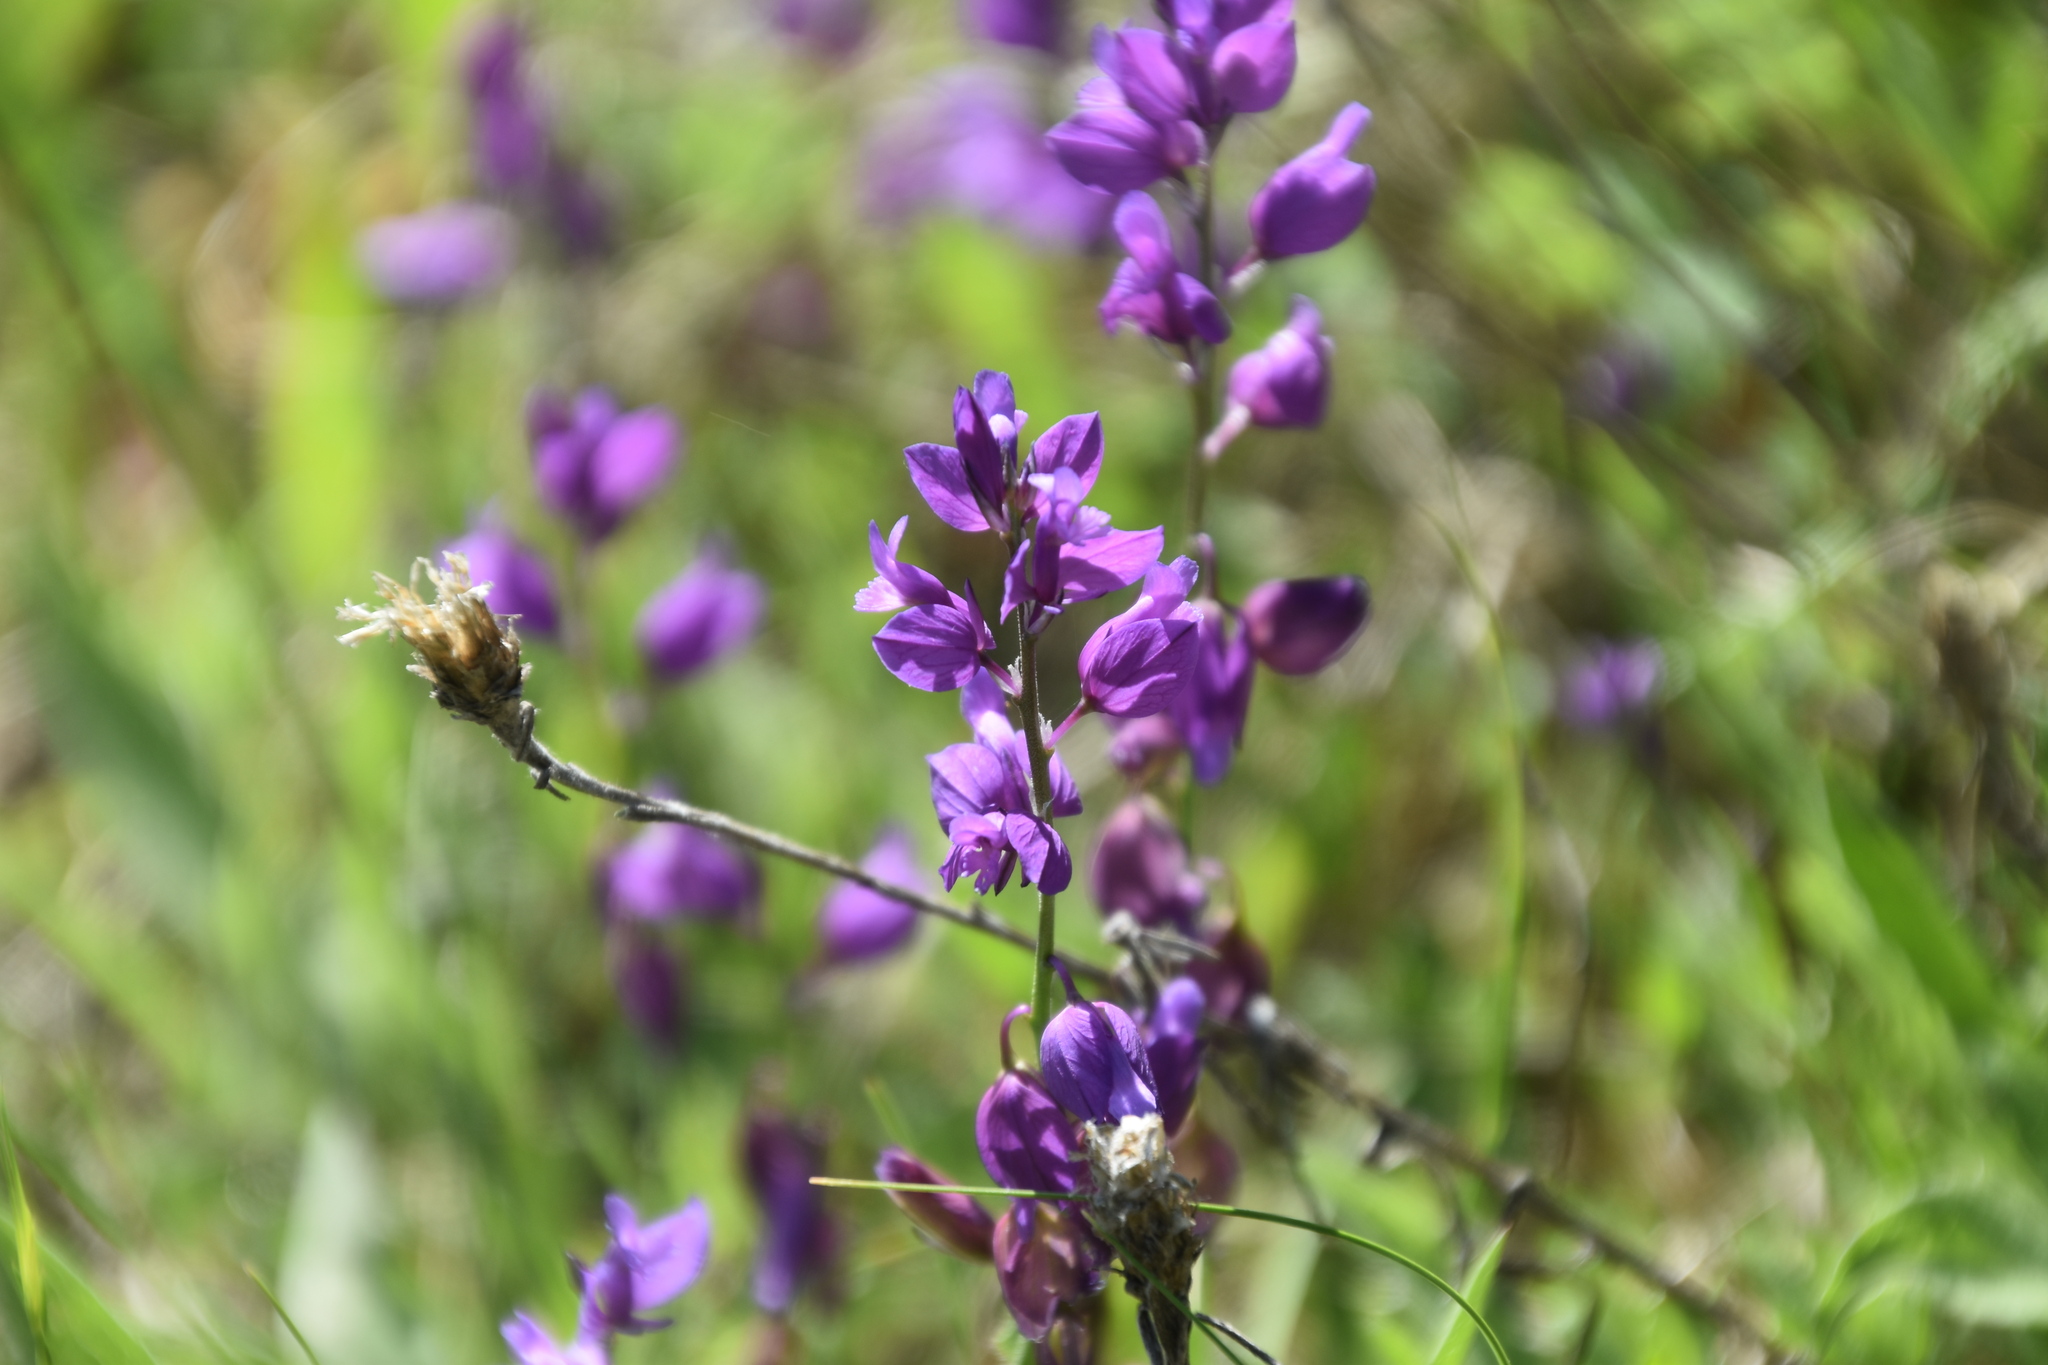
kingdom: Plantae
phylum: Tracheophyta
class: Magnoliopsida
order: Fabales
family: Polygalaceae
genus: Polygala
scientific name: Polygala nicaeensis
